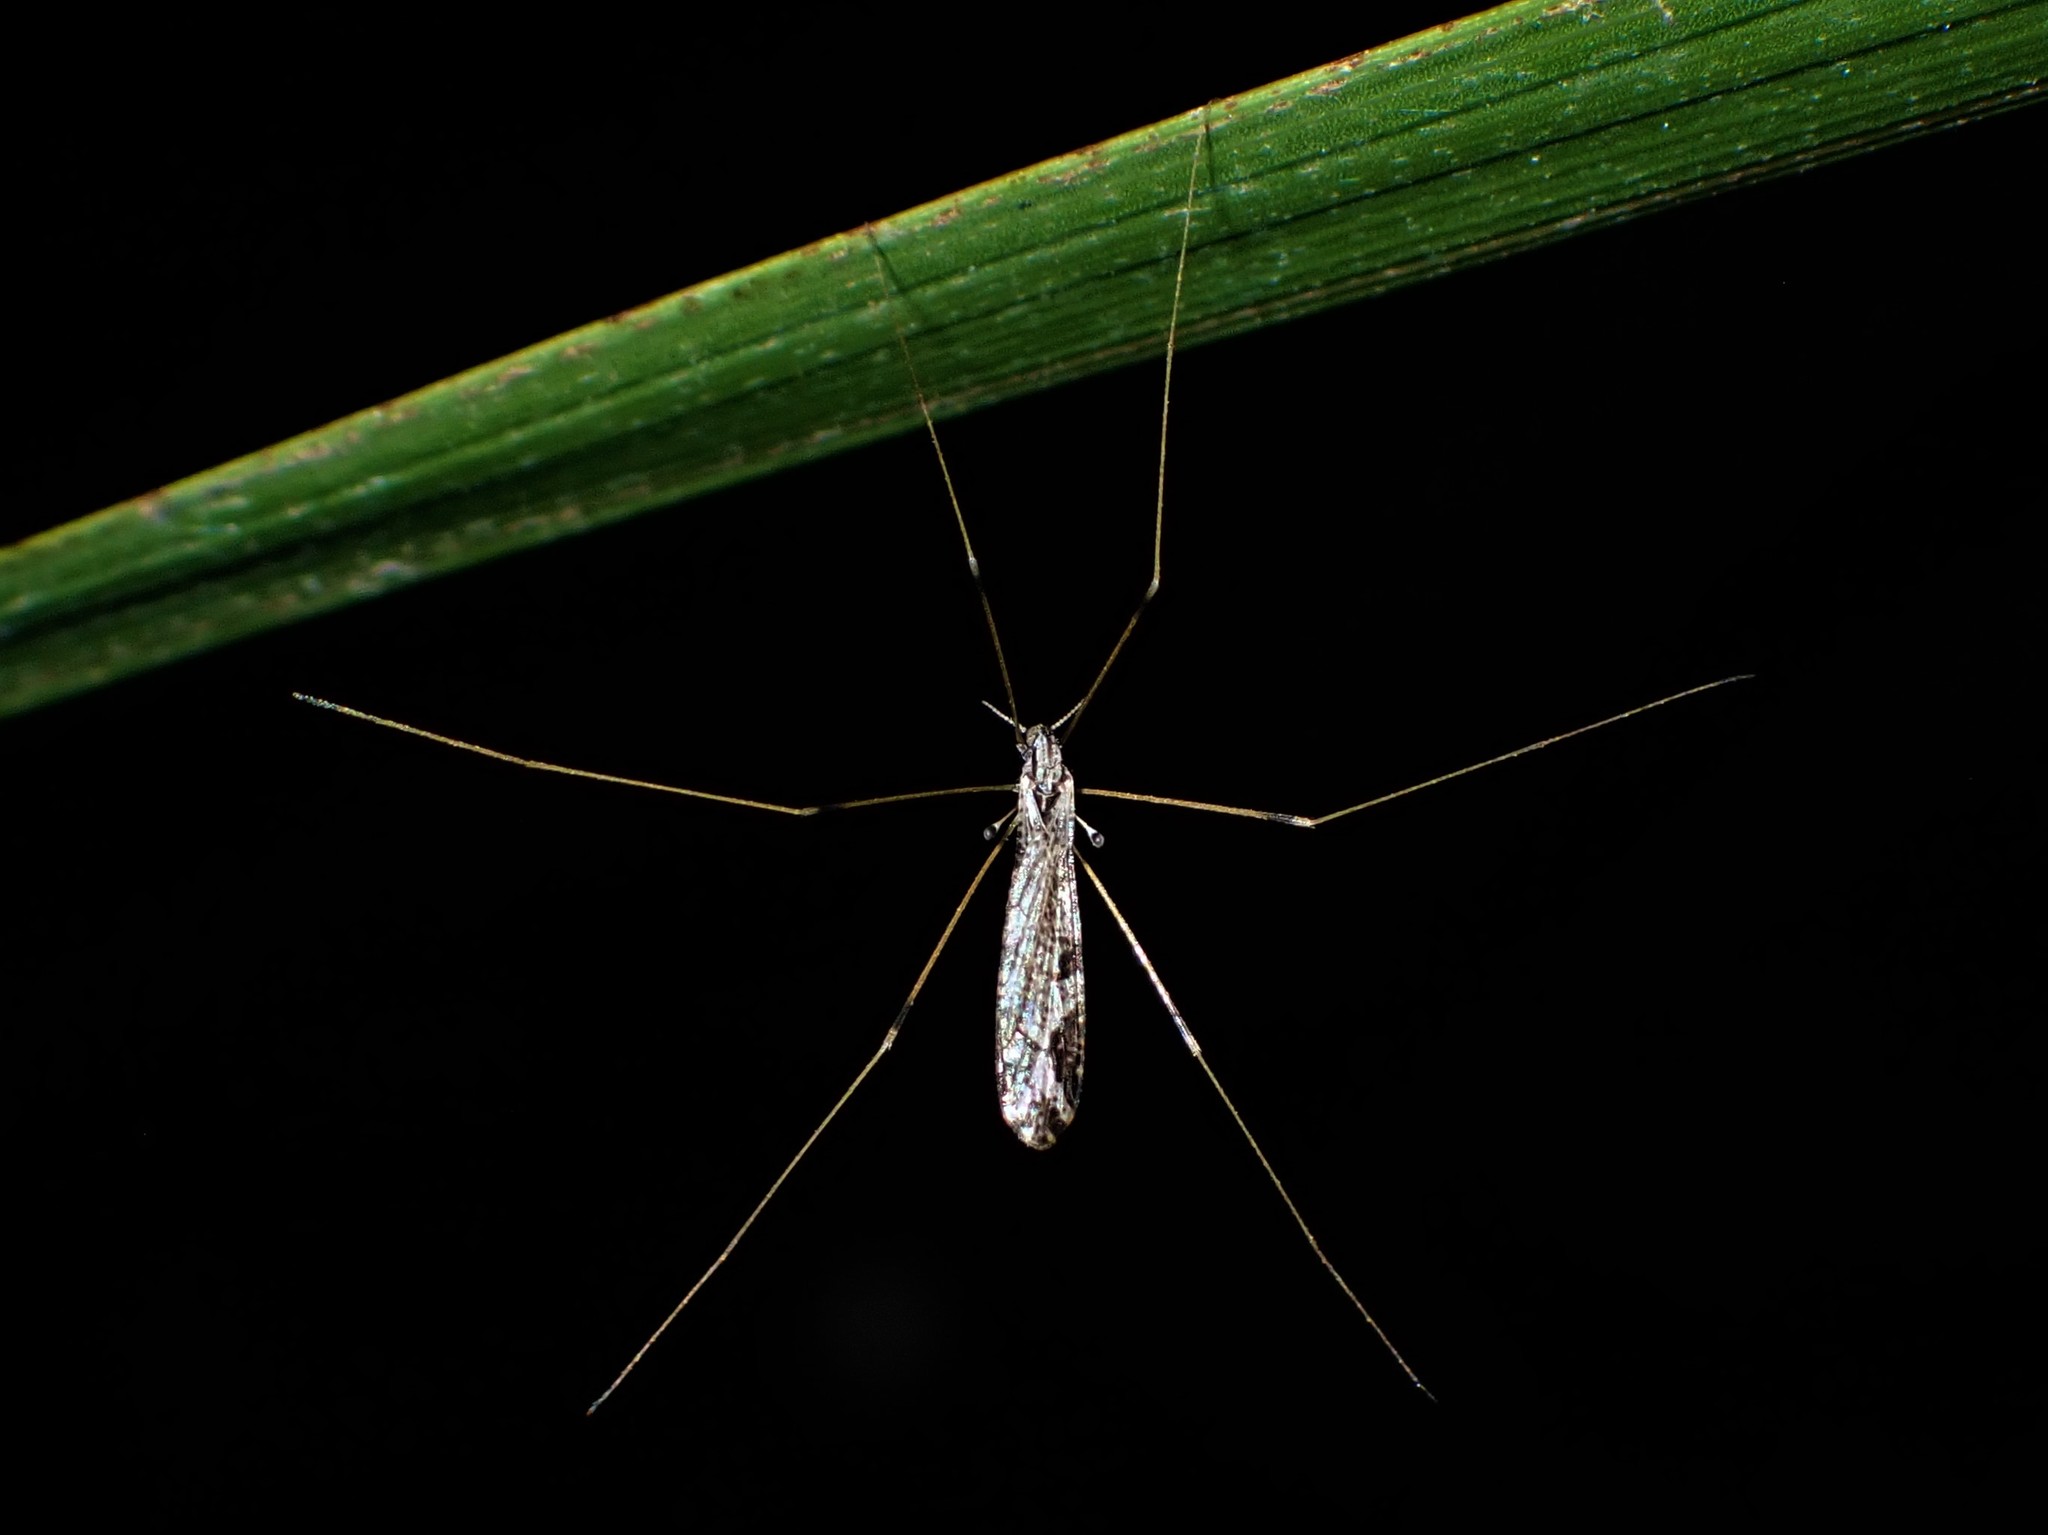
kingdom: Animalia
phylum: Arthropoda
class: Insecta
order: Diptera
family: Limoniidae
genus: Discobola
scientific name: Discobola striata
